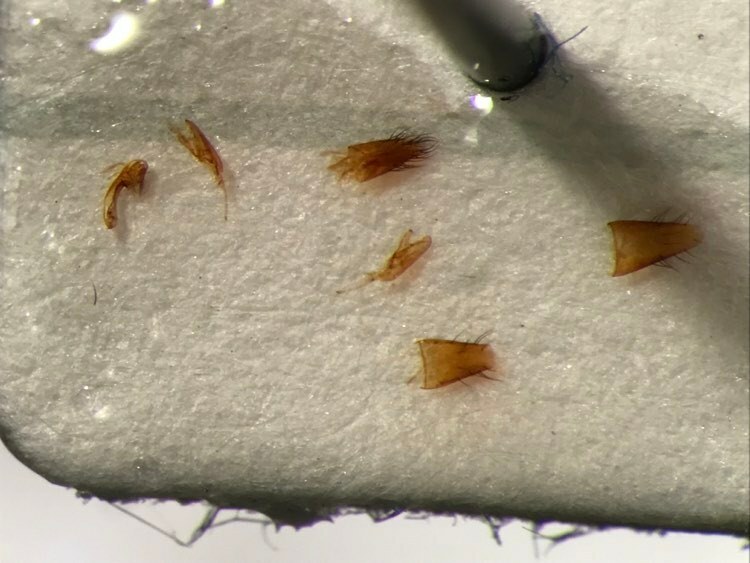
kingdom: Animalia
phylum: Arthropoda
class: Insecta
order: Coleoptera
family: Staphylinidae
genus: Oxypoda
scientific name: Oxypoda hiemalis
